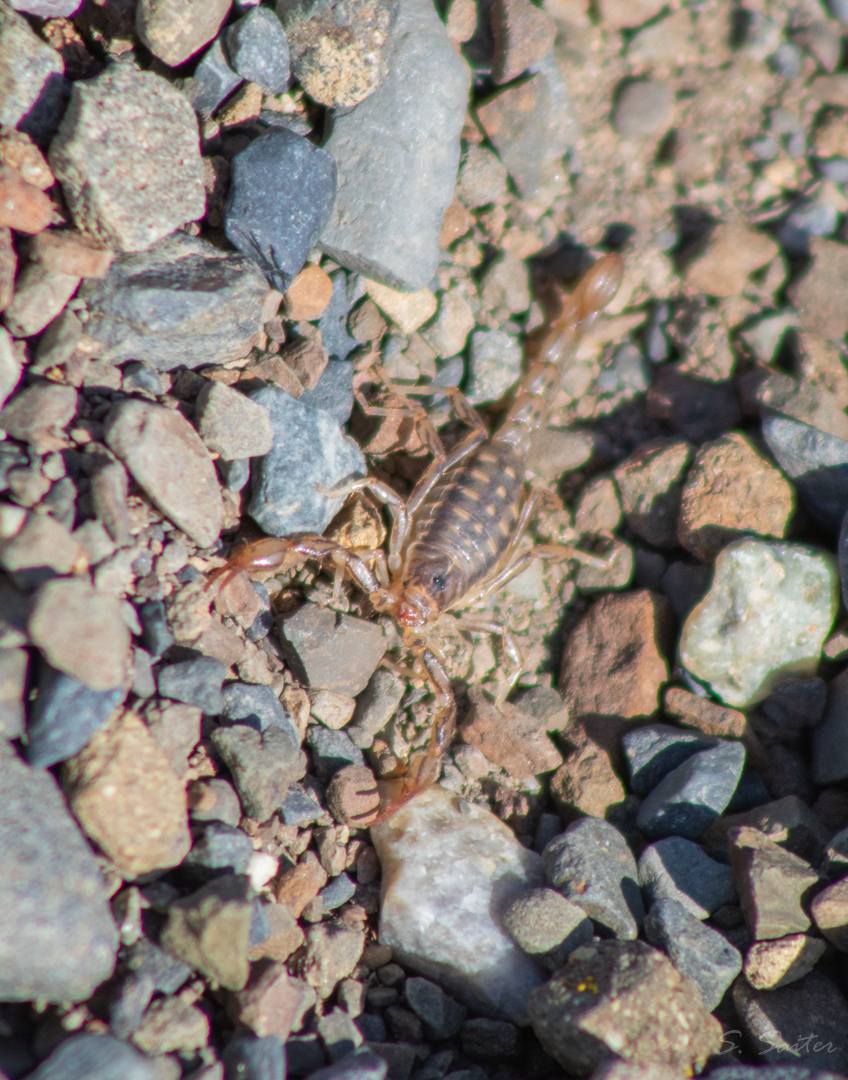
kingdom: Animalia
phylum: Arthropoda
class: Arachnida
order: Scorpiones
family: Bothriuridae
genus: Urophonius
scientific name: Urophonius granulatus
